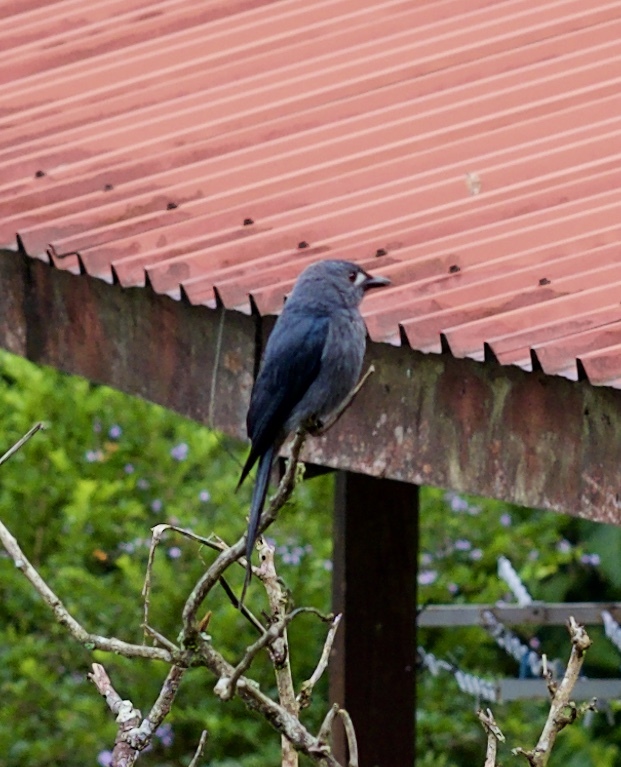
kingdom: Animalia
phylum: Chordata
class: Aves
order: Passeriformes
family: Dicruridae
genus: Dicrurus
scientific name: Dicrurus leucophaeus
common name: Ashy drongo
